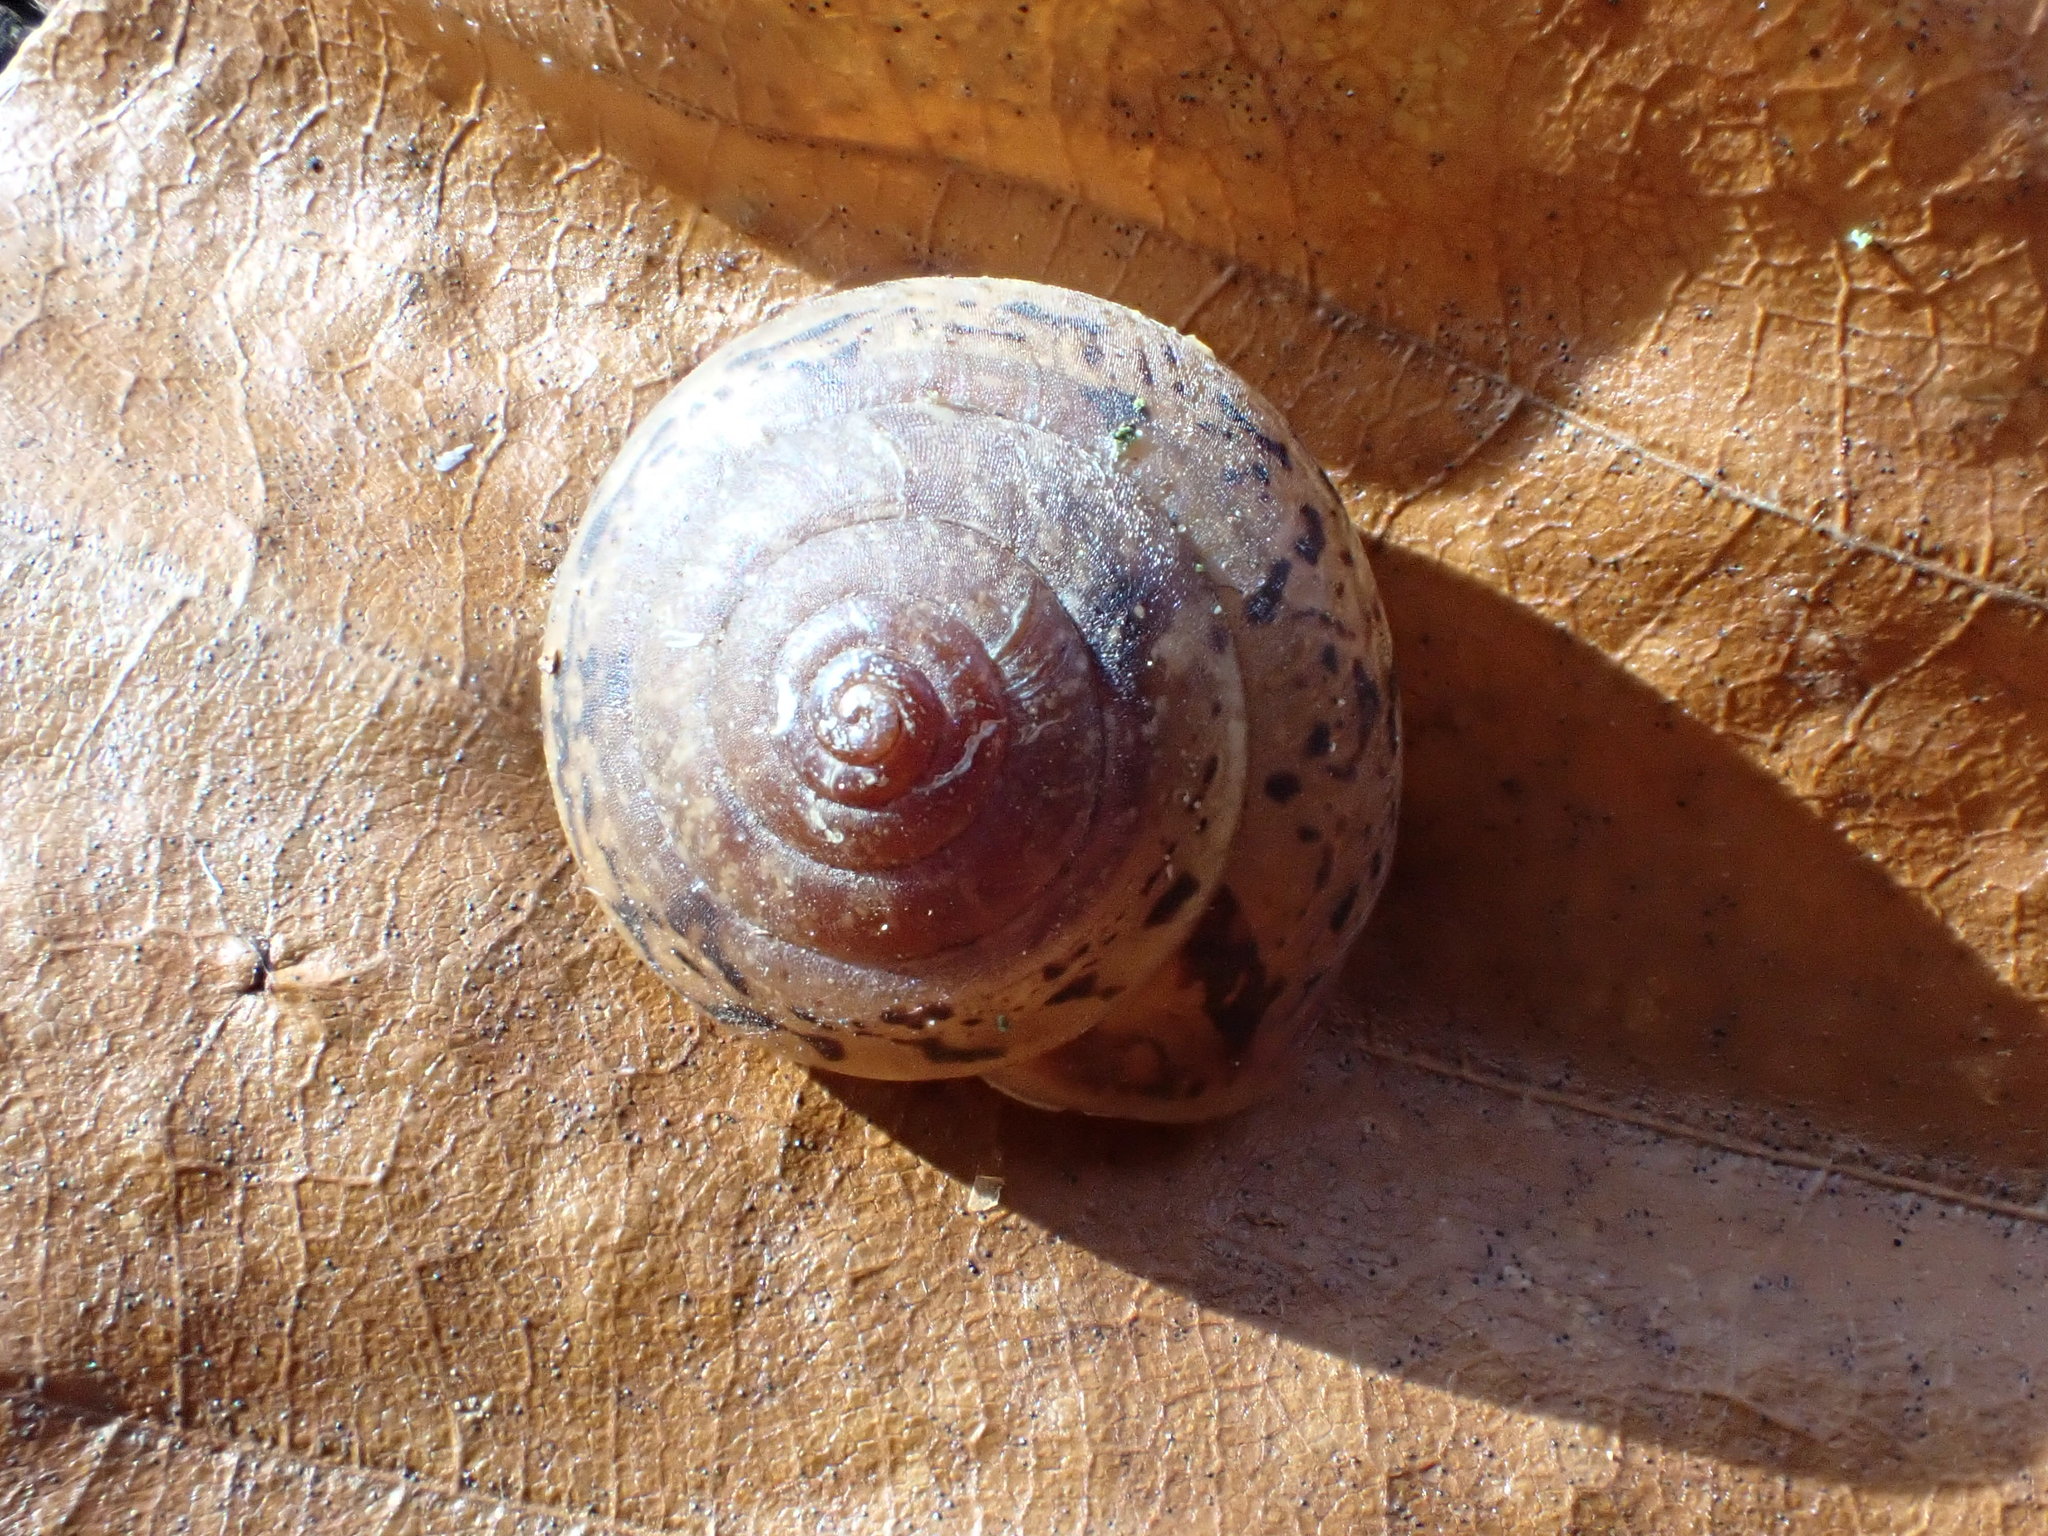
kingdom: Animalia
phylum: Mollusca
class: Gastropoda
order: Stylommatophora
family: Hygromiidae
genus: Monachoides
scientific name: Monachoides incarnatus
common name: Incarnate snail
